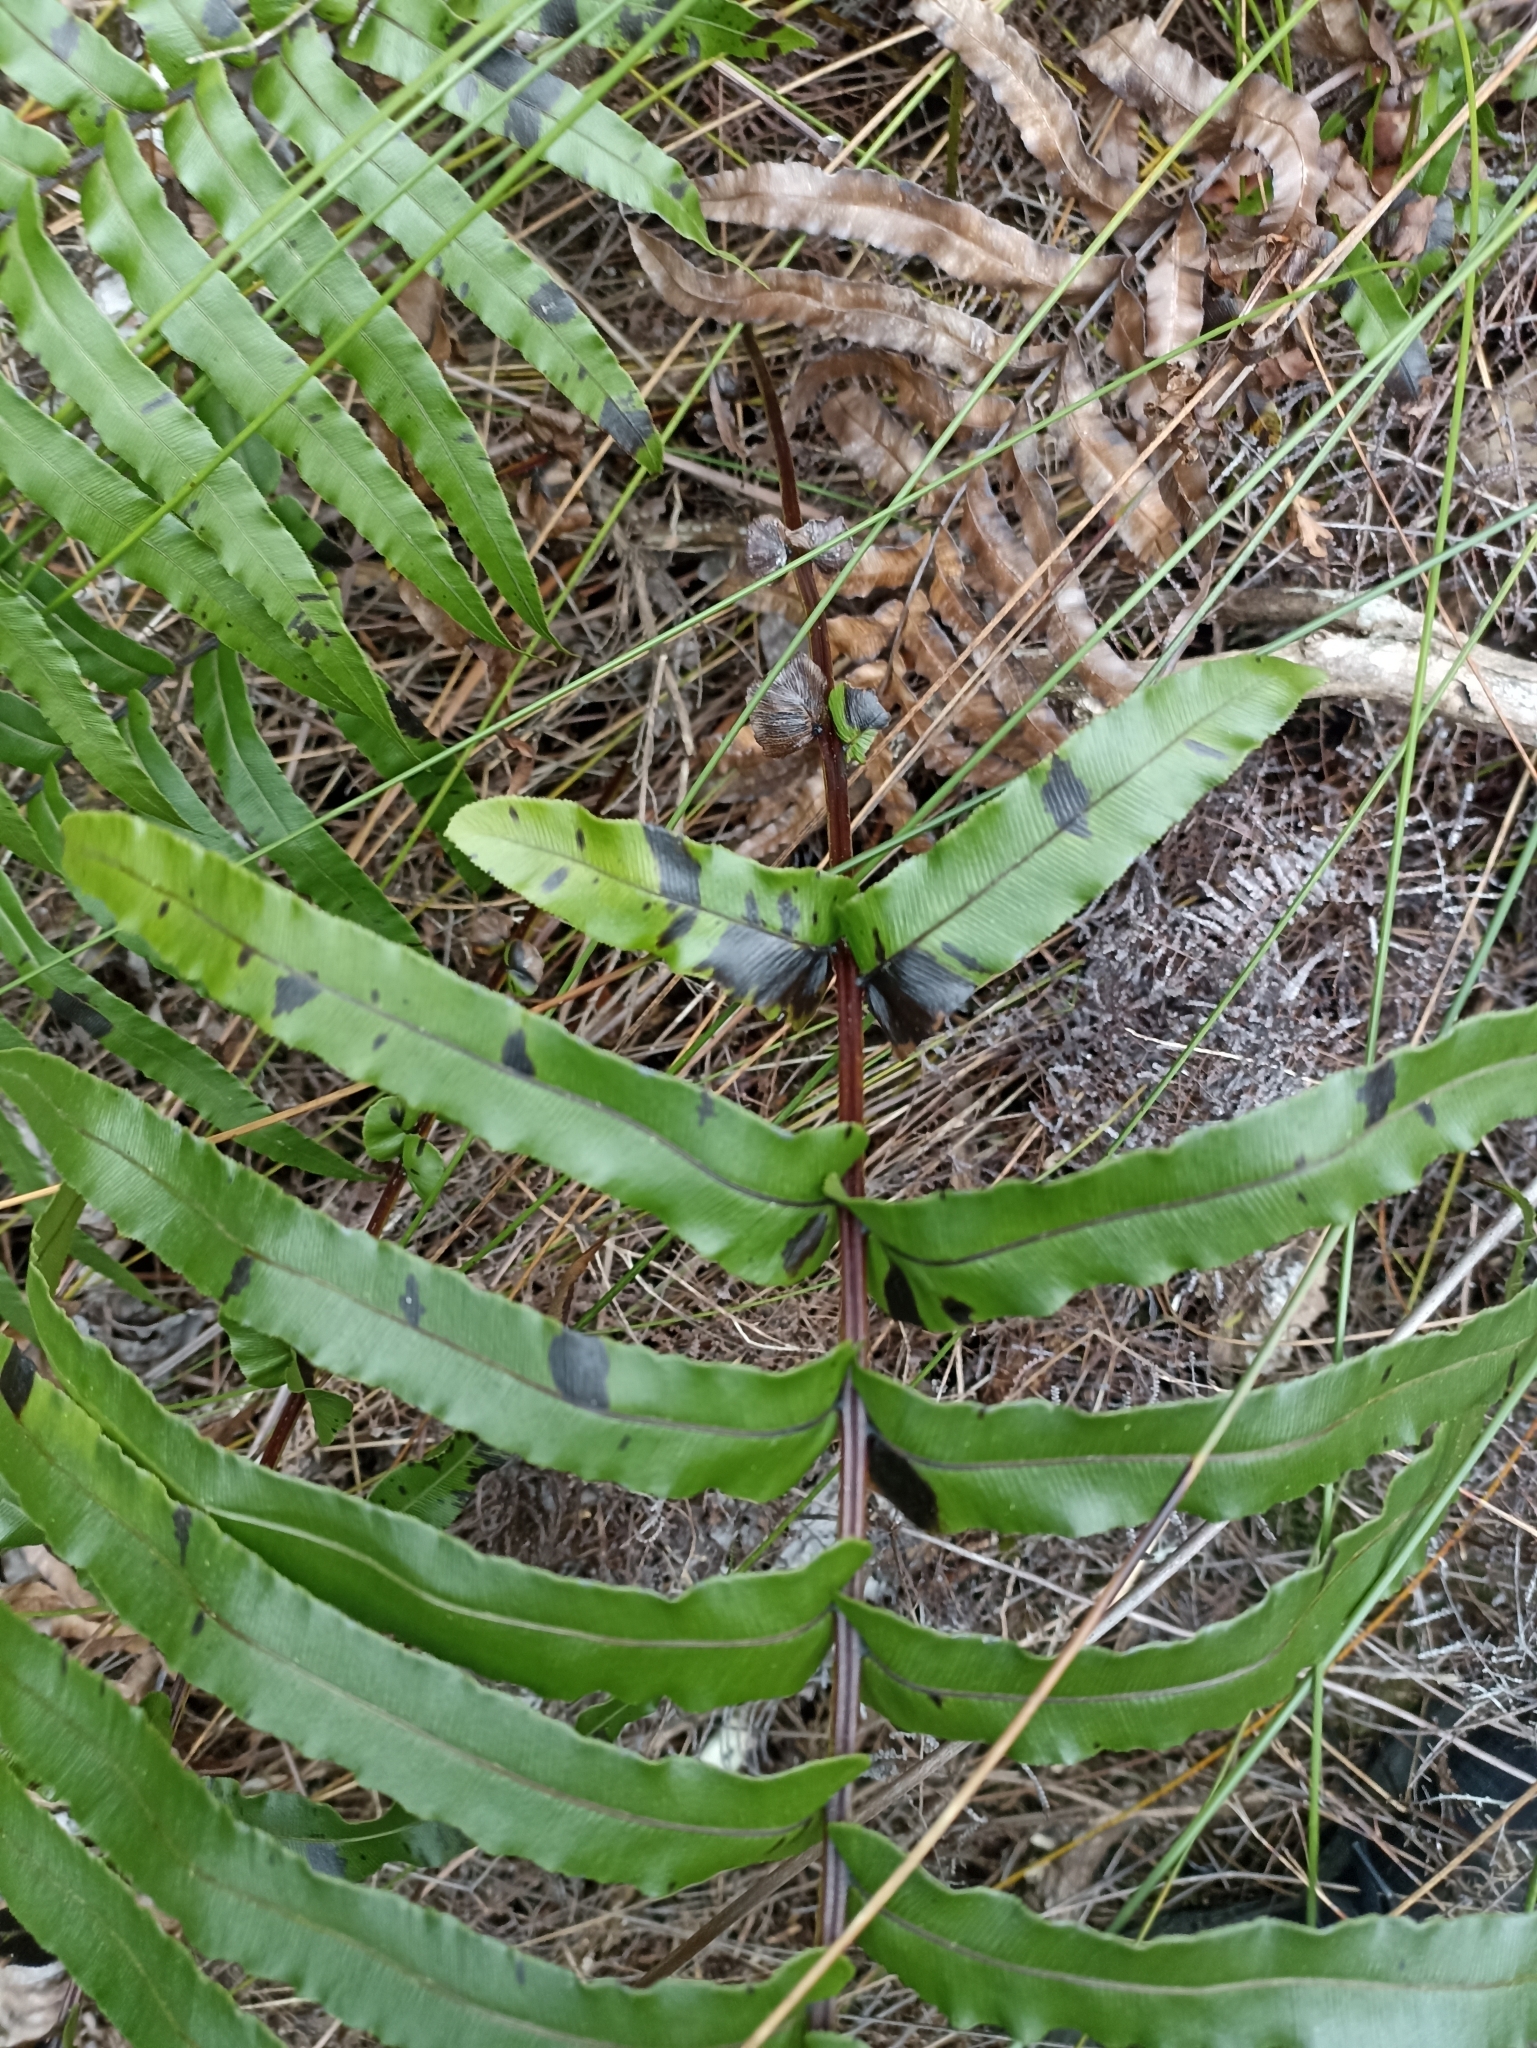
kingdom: Plantae
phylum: Tracheophyta
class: Polypodiopsida
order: Polypodiales
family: Blechnaceae
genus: Parablechnum
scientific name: Parablechnum novae-zelandiae
